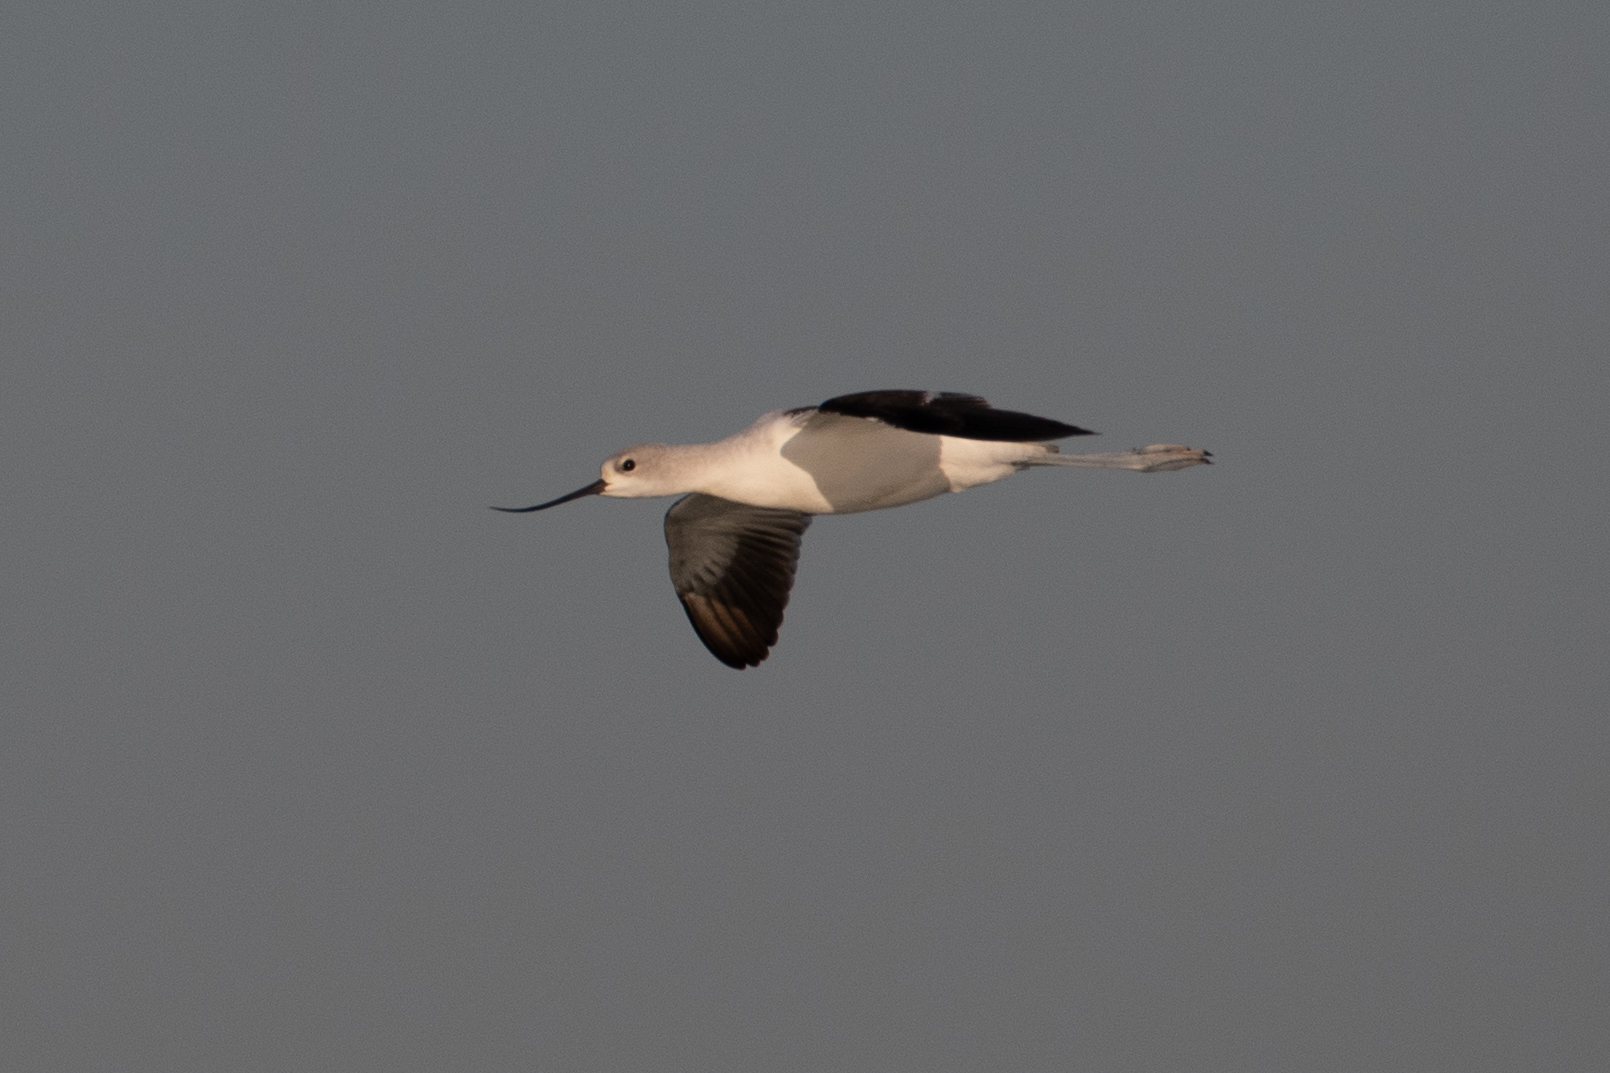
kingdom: Animalia
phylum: Chordata
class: Aves
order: Charadriiformes
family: Recurvirostridae
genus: Recurvirostra
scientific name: Recurvirostra americana
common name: American avocet
